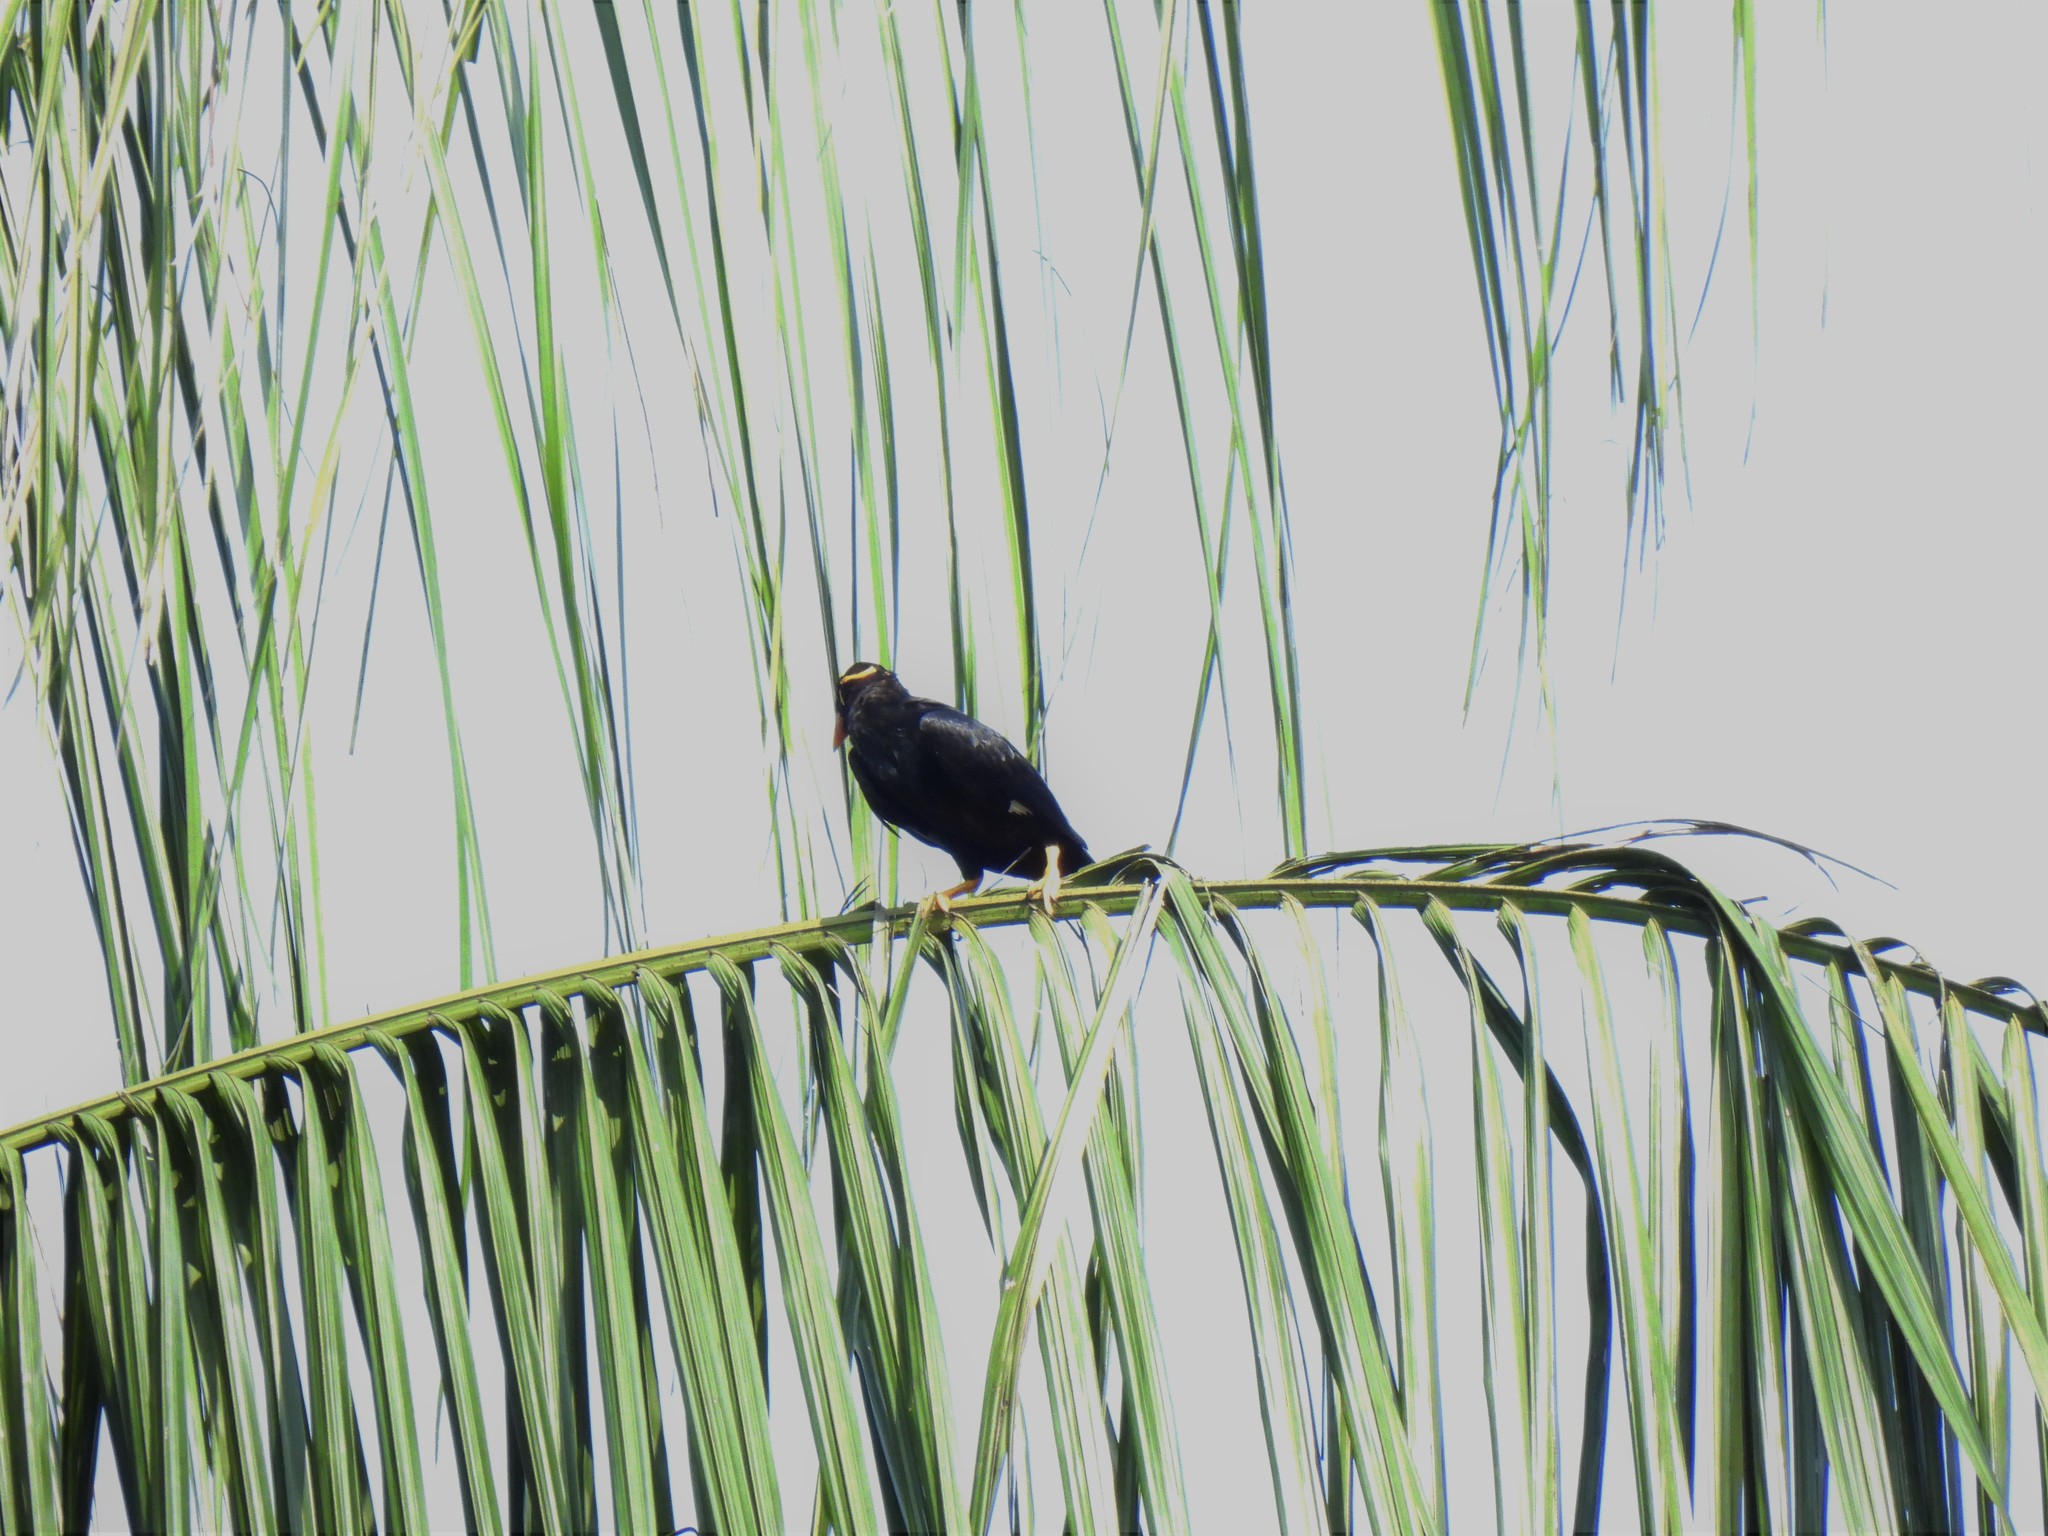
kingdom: Animalia
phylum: Chordata
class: Aves
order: Passeriformes
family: Sturnidae
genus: Gracula
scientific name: Gracula religiosa
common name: Common hill myna
